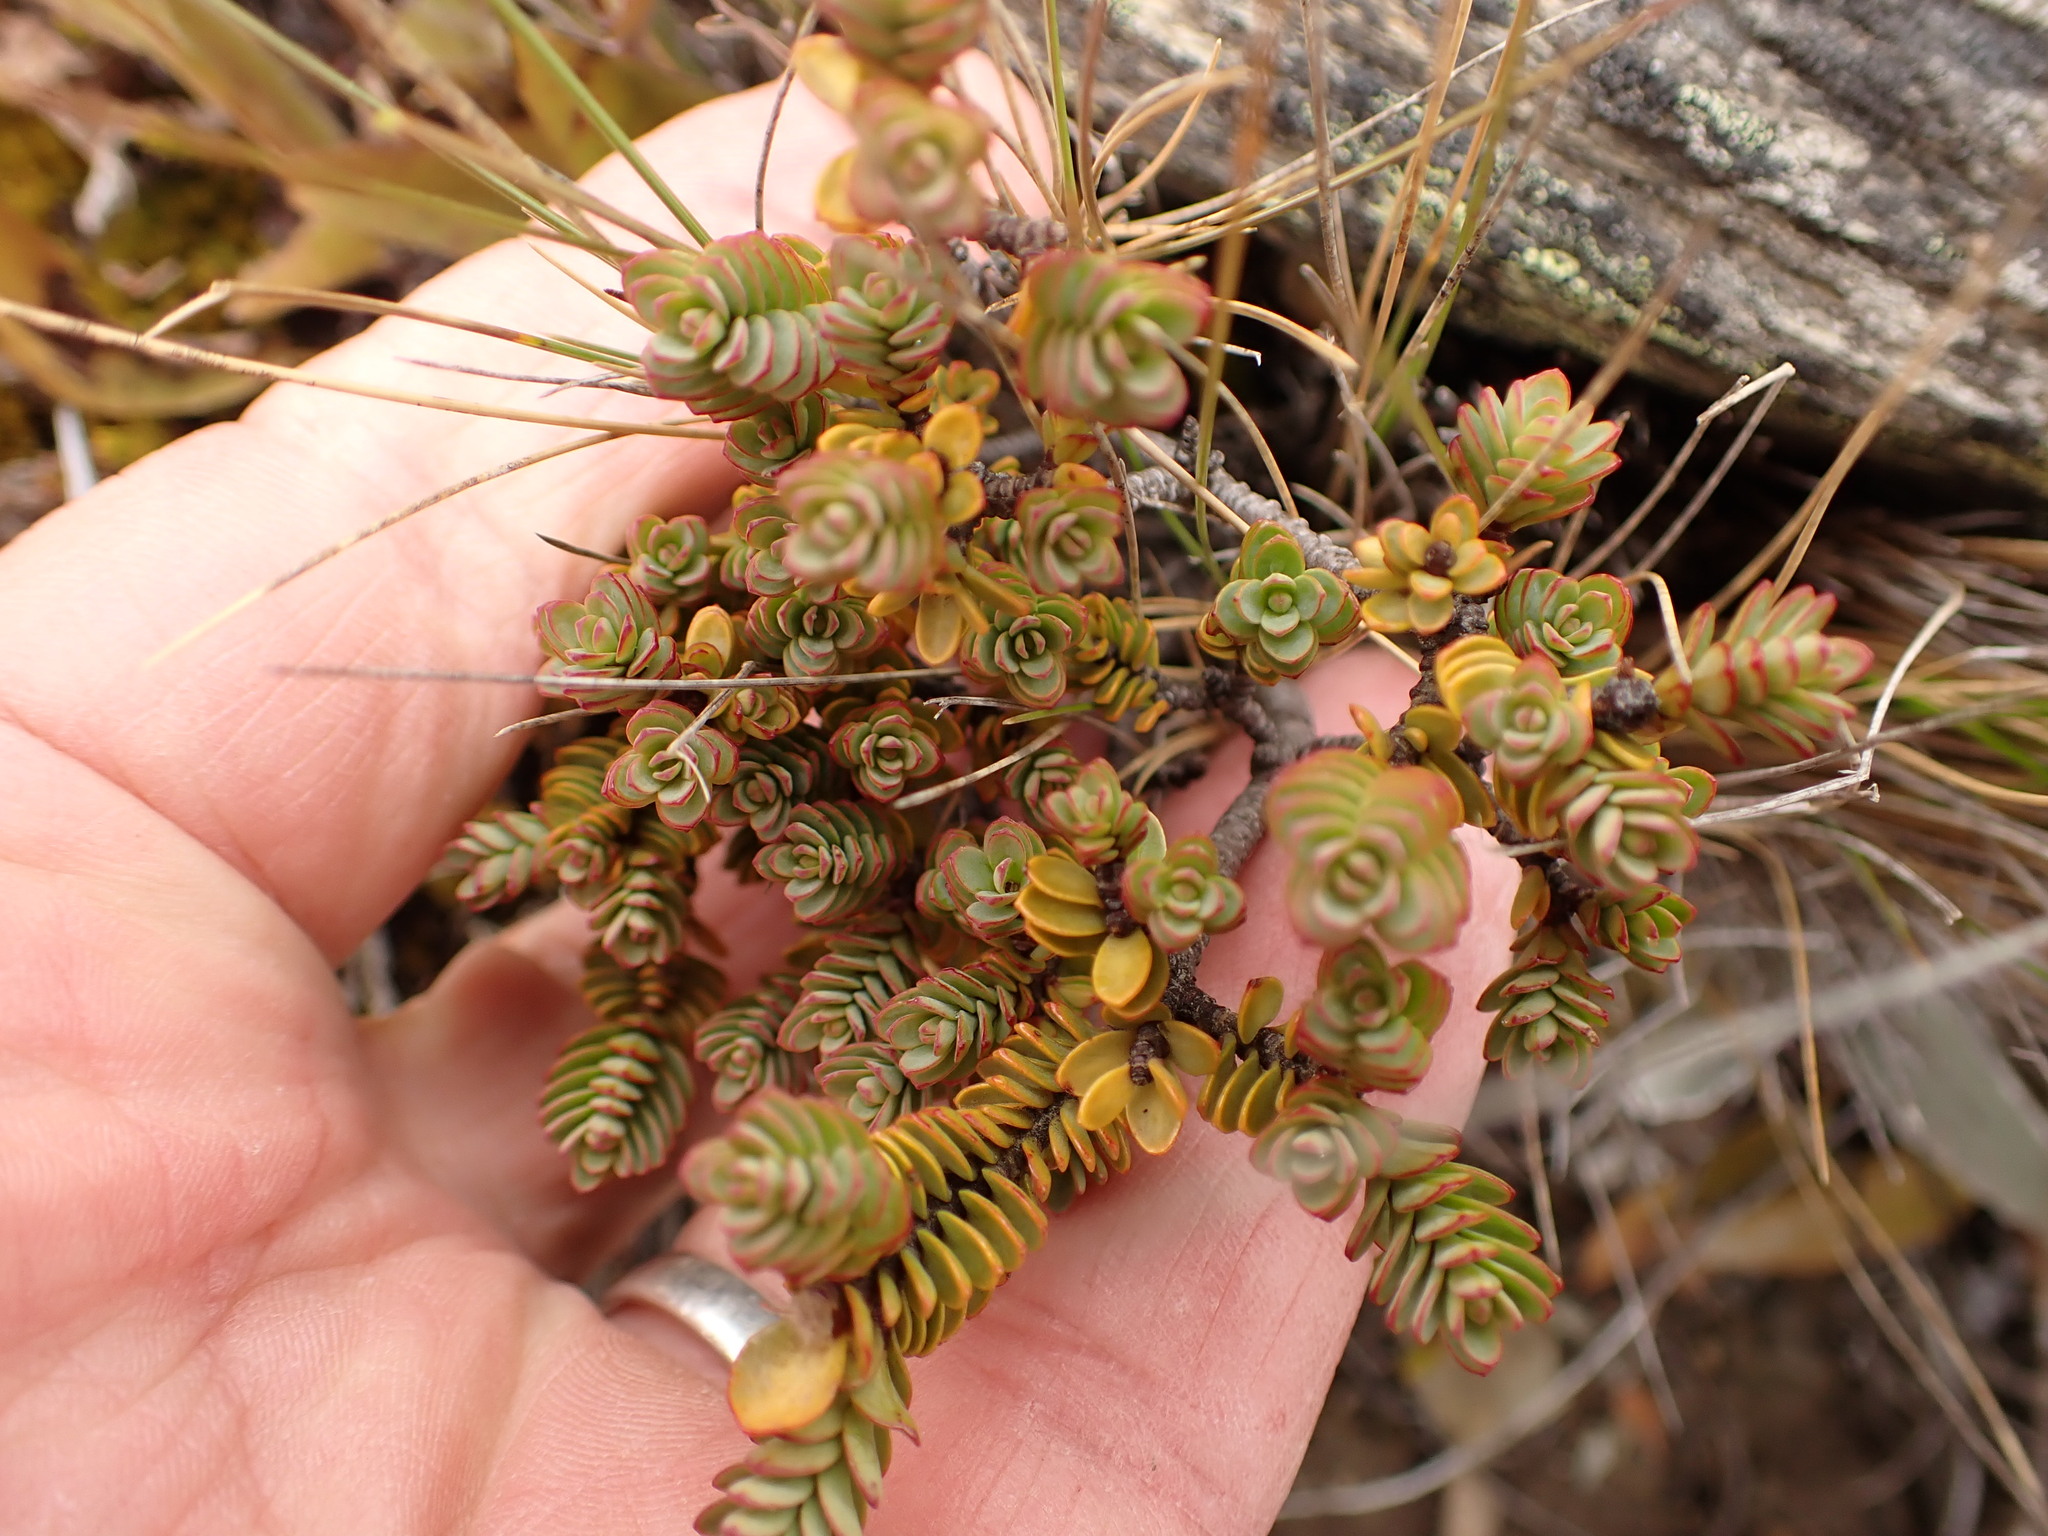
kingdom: Plantae
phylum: Tracheophyta
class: Magnoliopsida
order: Malvales
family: Thymelaeaceae
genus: Pimelea
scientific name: Pimelea traversii
